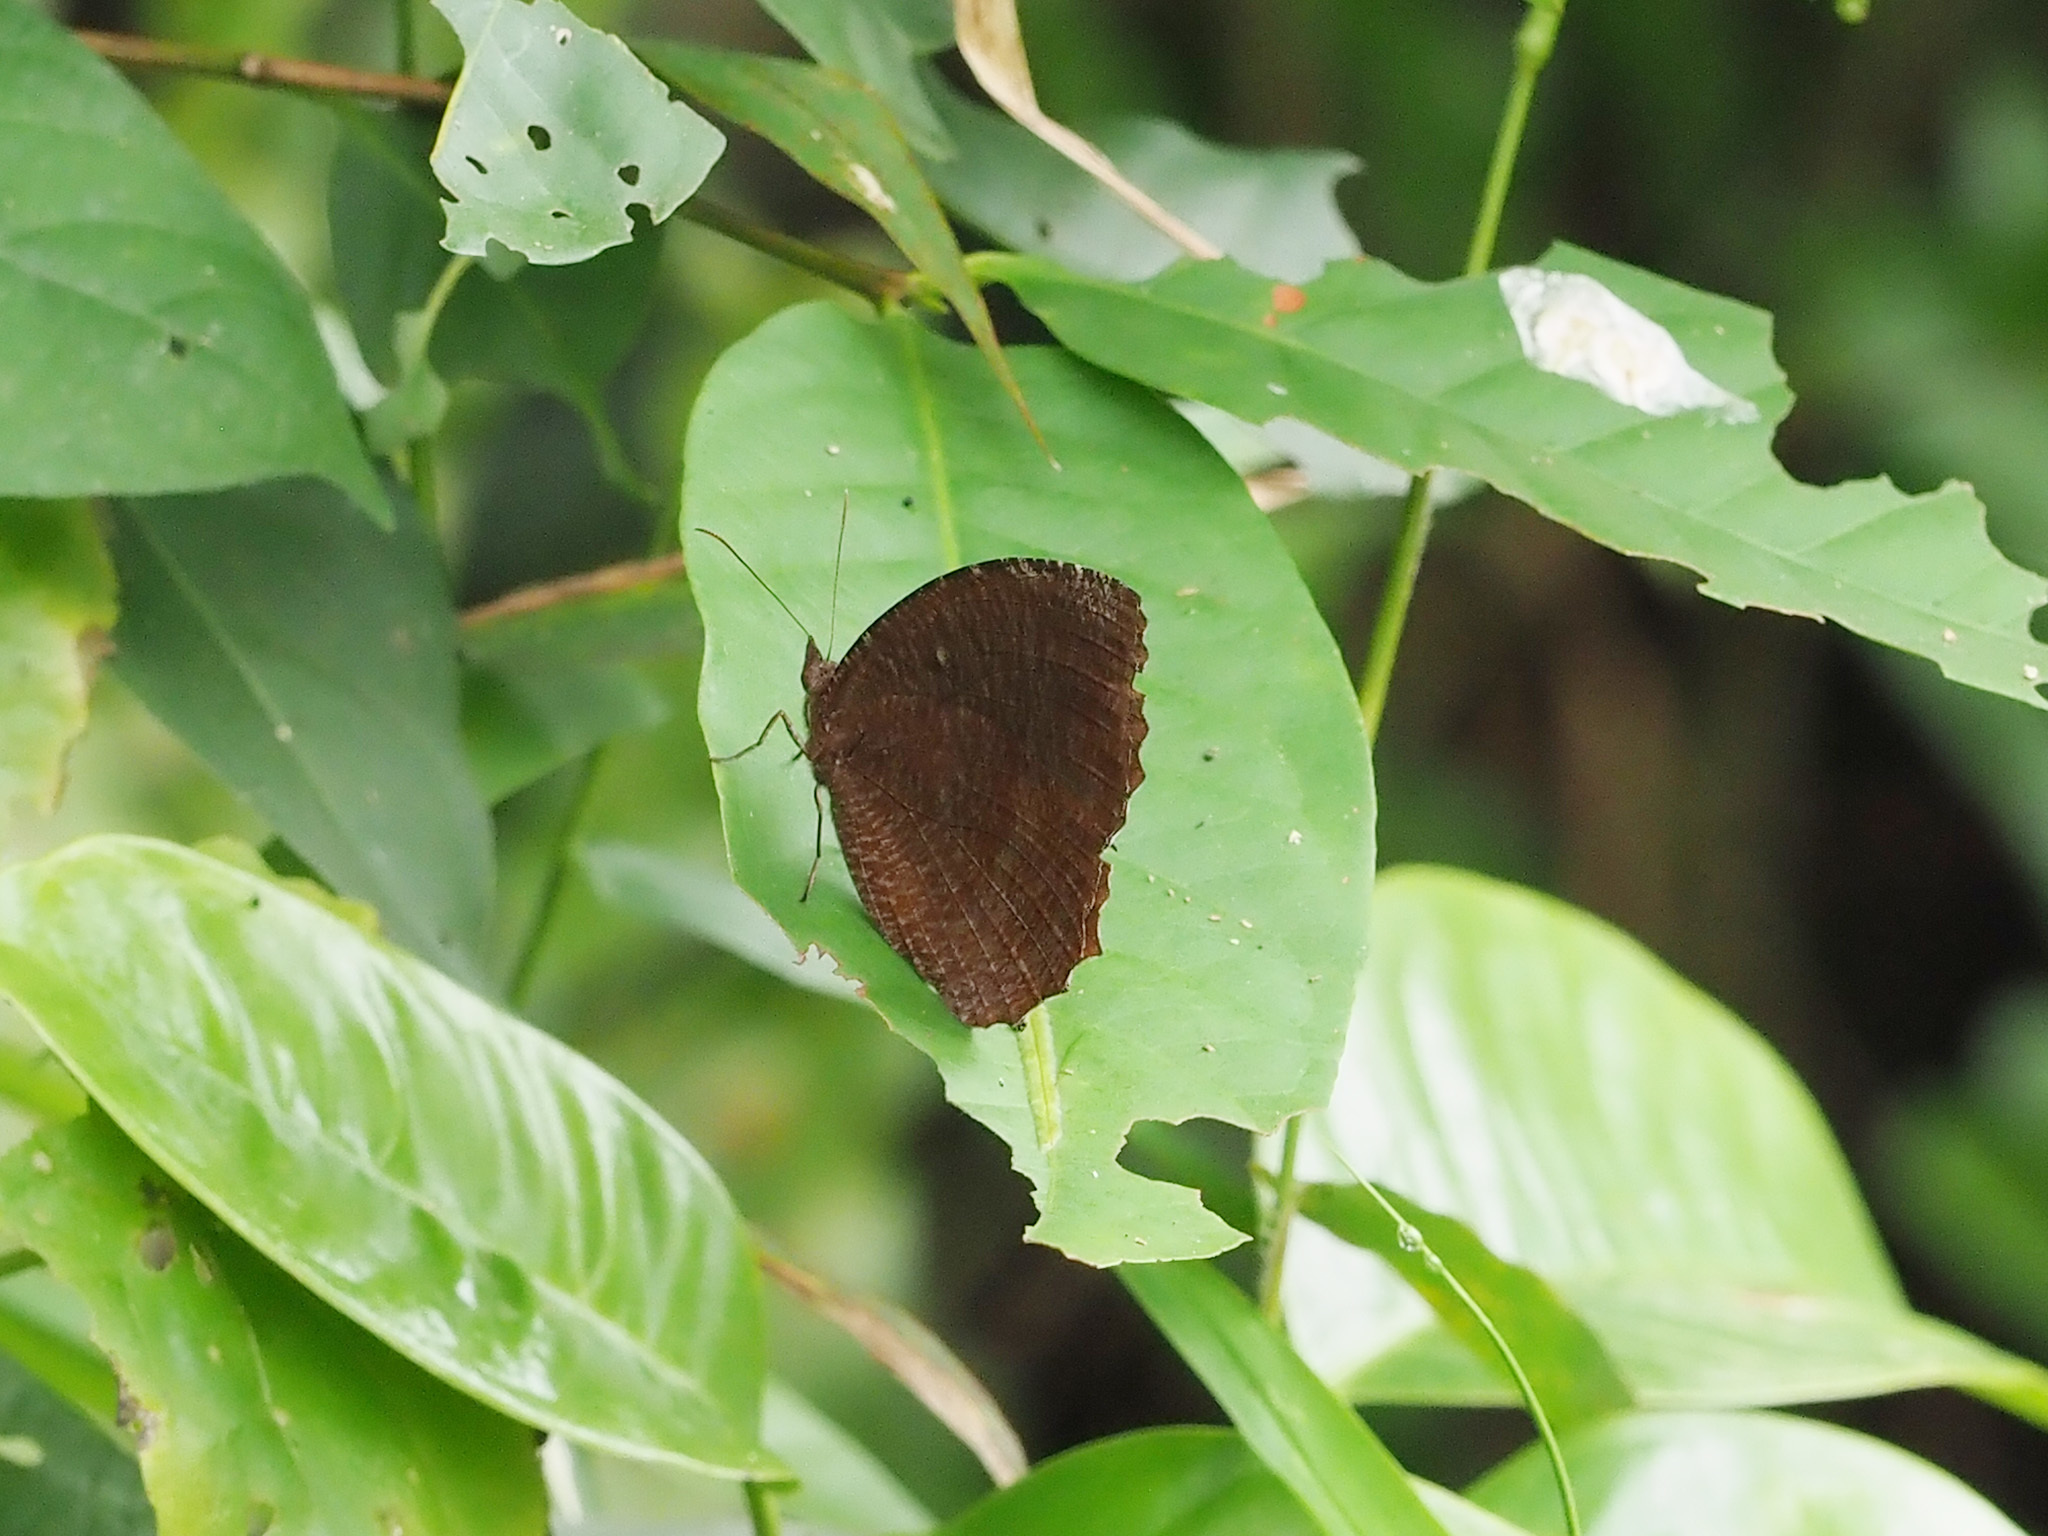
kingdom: Animalia
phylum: Arthropoda
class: Insecta
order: Lepidoptera
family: Nymphalidae
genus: Elymnias
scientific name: Elymnias hypermnestra
